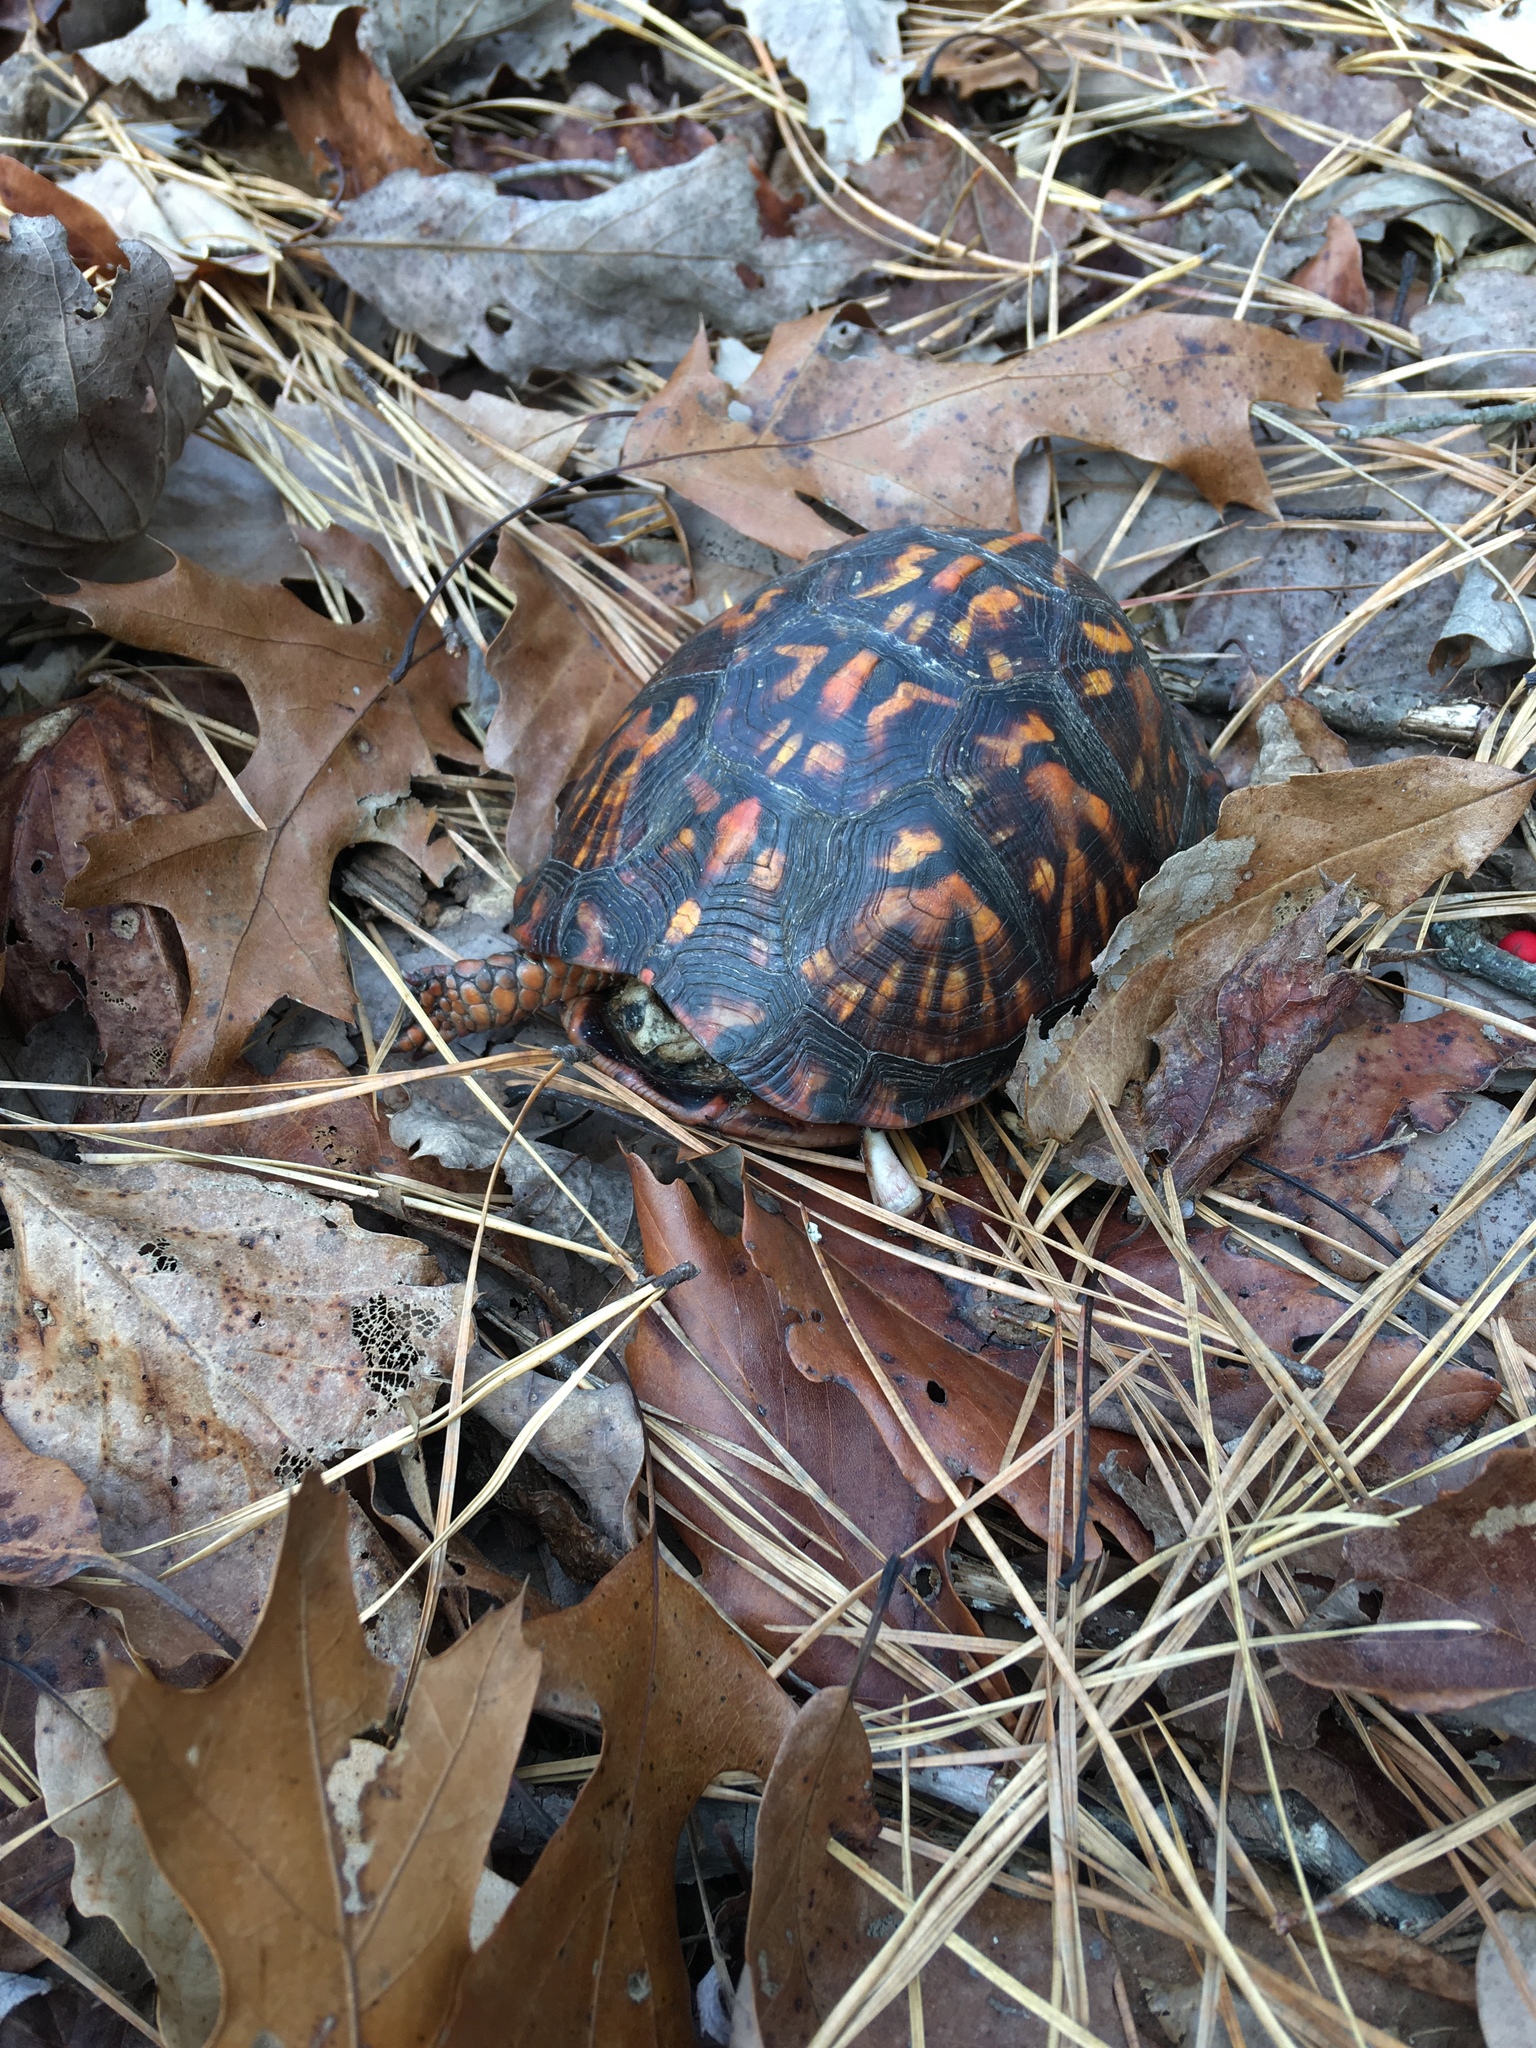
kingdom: Animalia
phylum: Chordata
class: Testudines
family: Emydidae
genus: Terrapene
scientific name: Terrapene carolina
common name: Common box turtle
